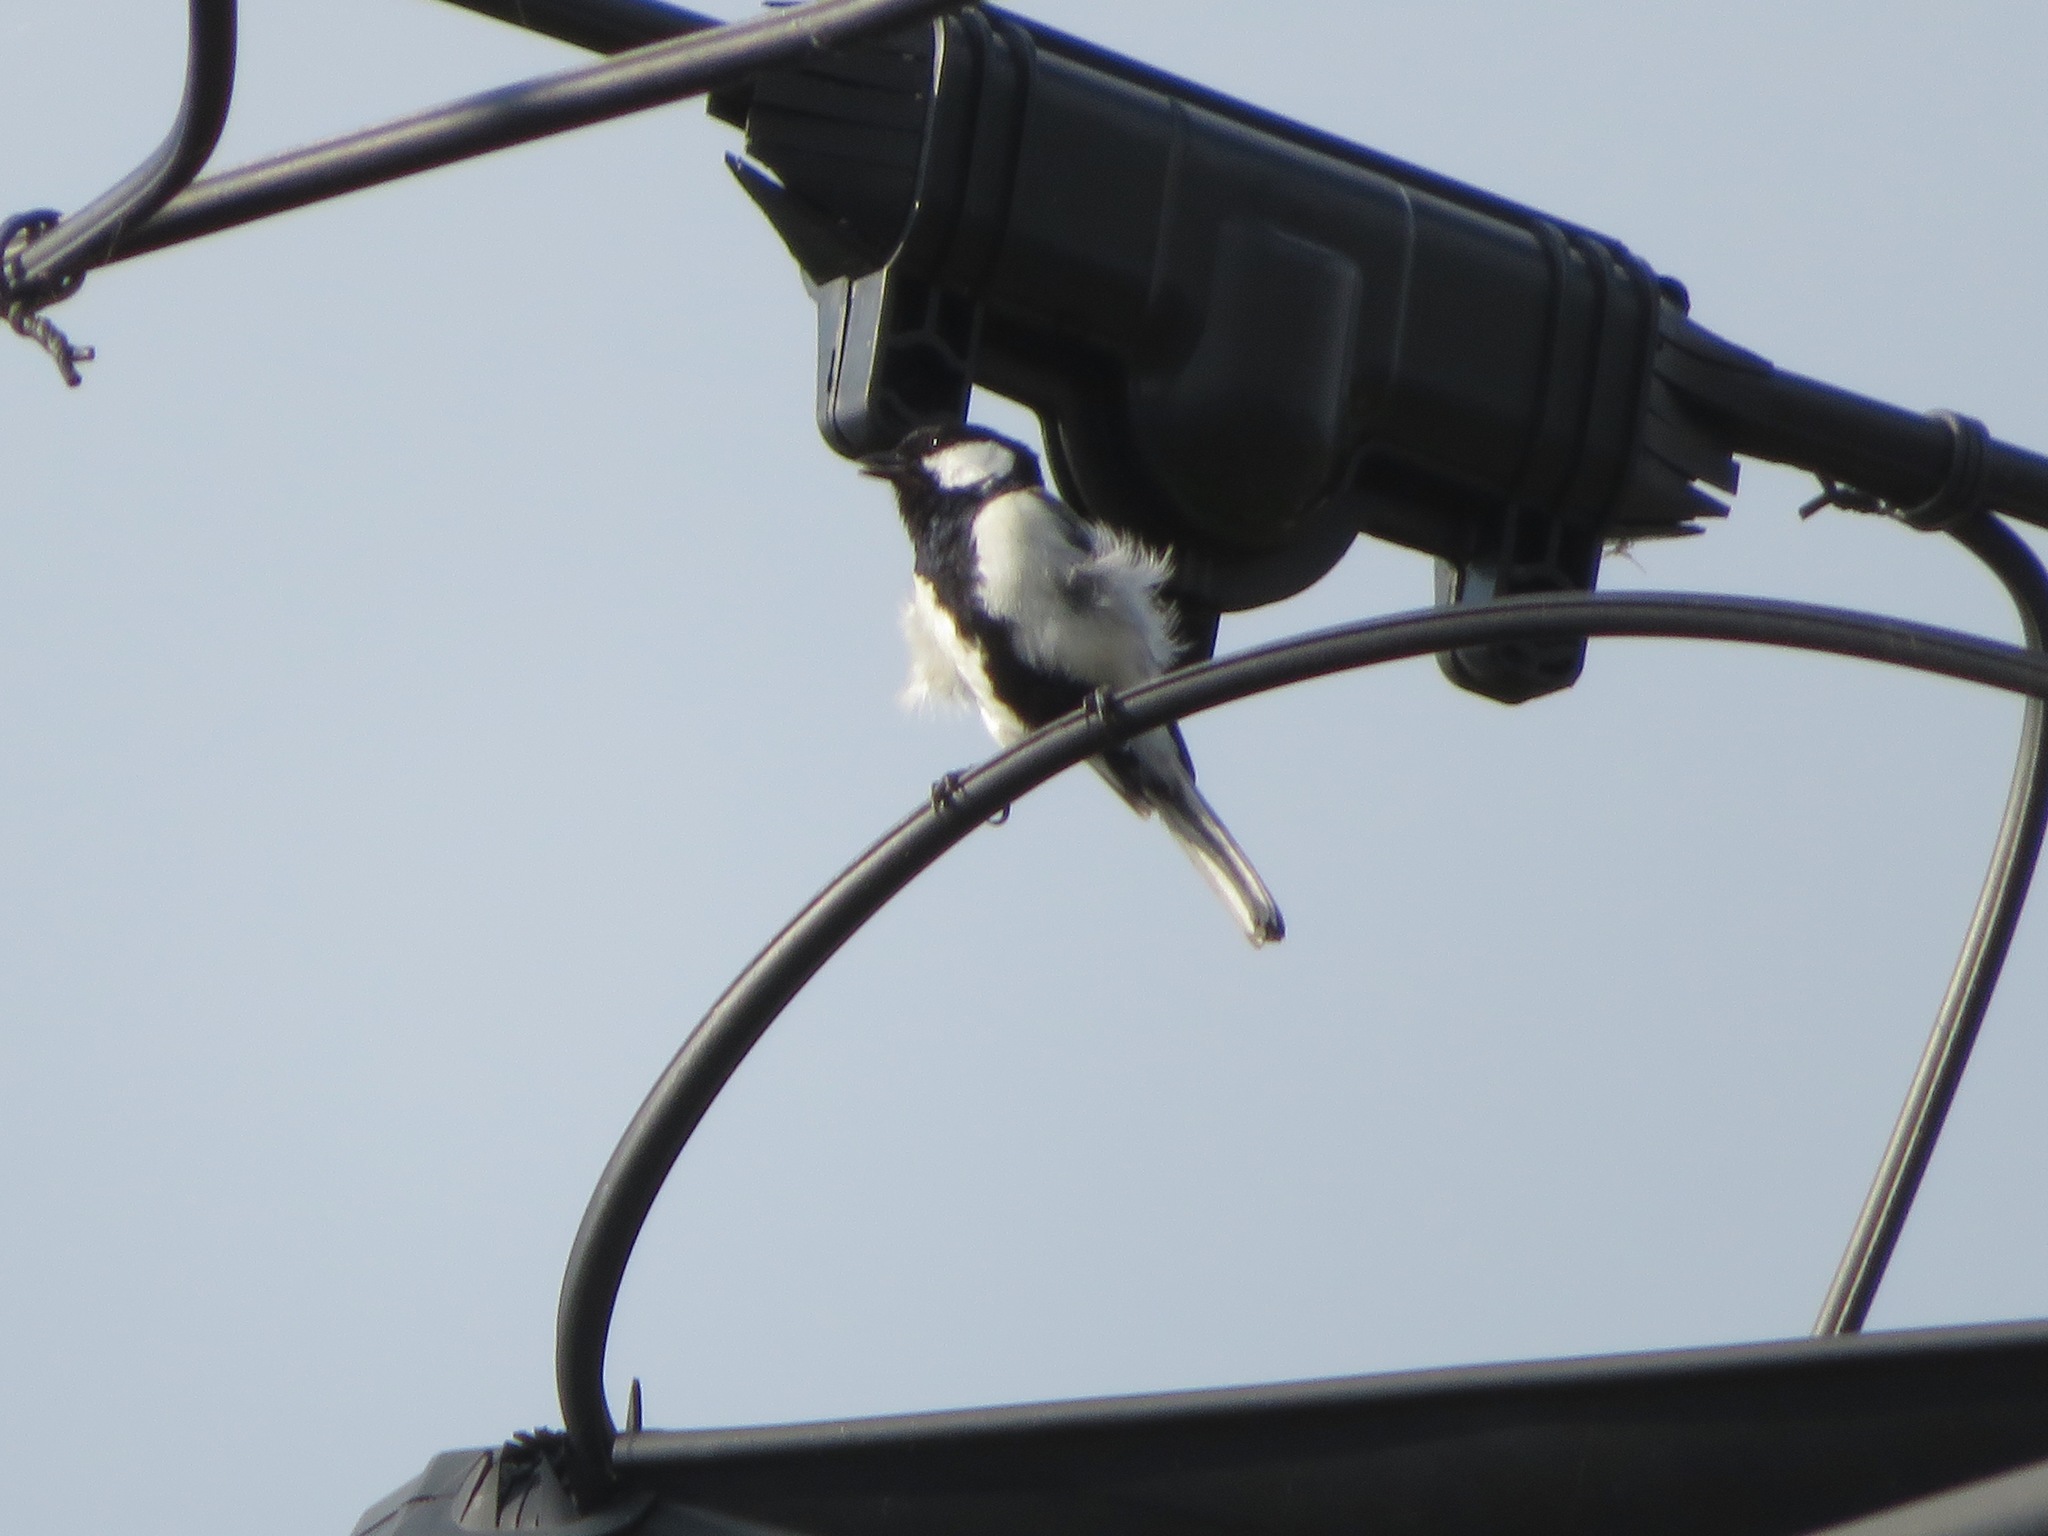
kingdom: Animalia
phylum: Chordata
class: Aves
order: Passeriformes
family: Paridae
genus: Parus
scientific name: Parus minor
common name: Japanese tit
